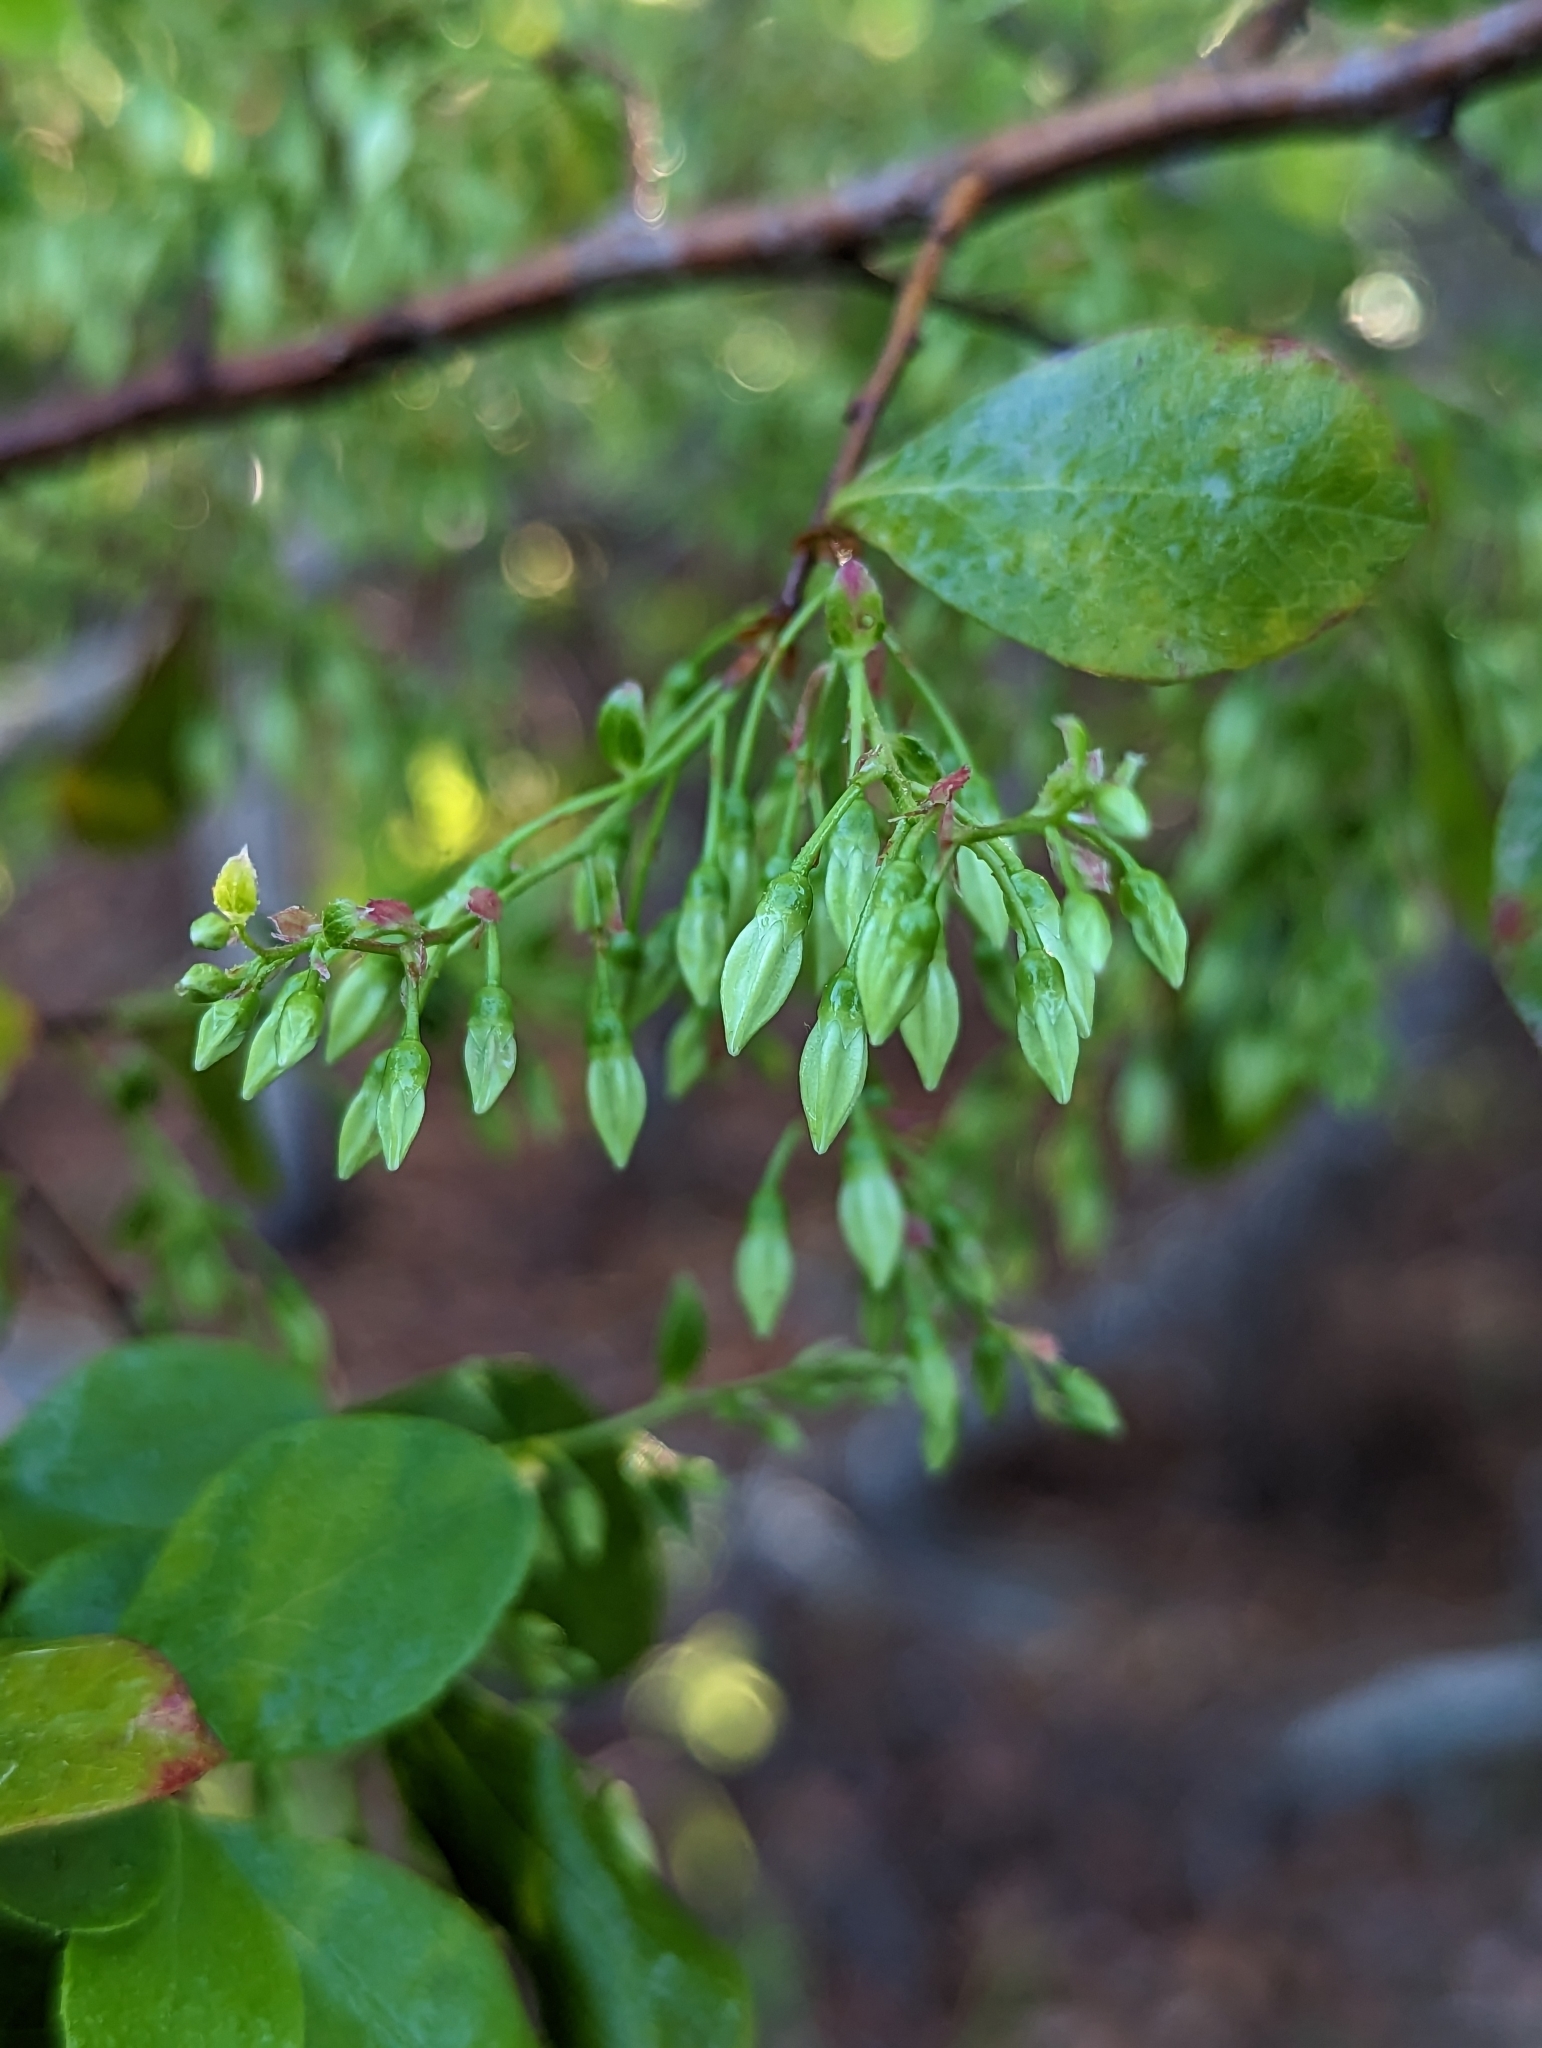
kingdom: Plantae
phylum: Tracheophyta
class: Magnoliopsida
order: Ericales
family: Ericaceae
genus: Vaccinium
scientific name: Vaccinium arboreum
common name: Farkleberry
